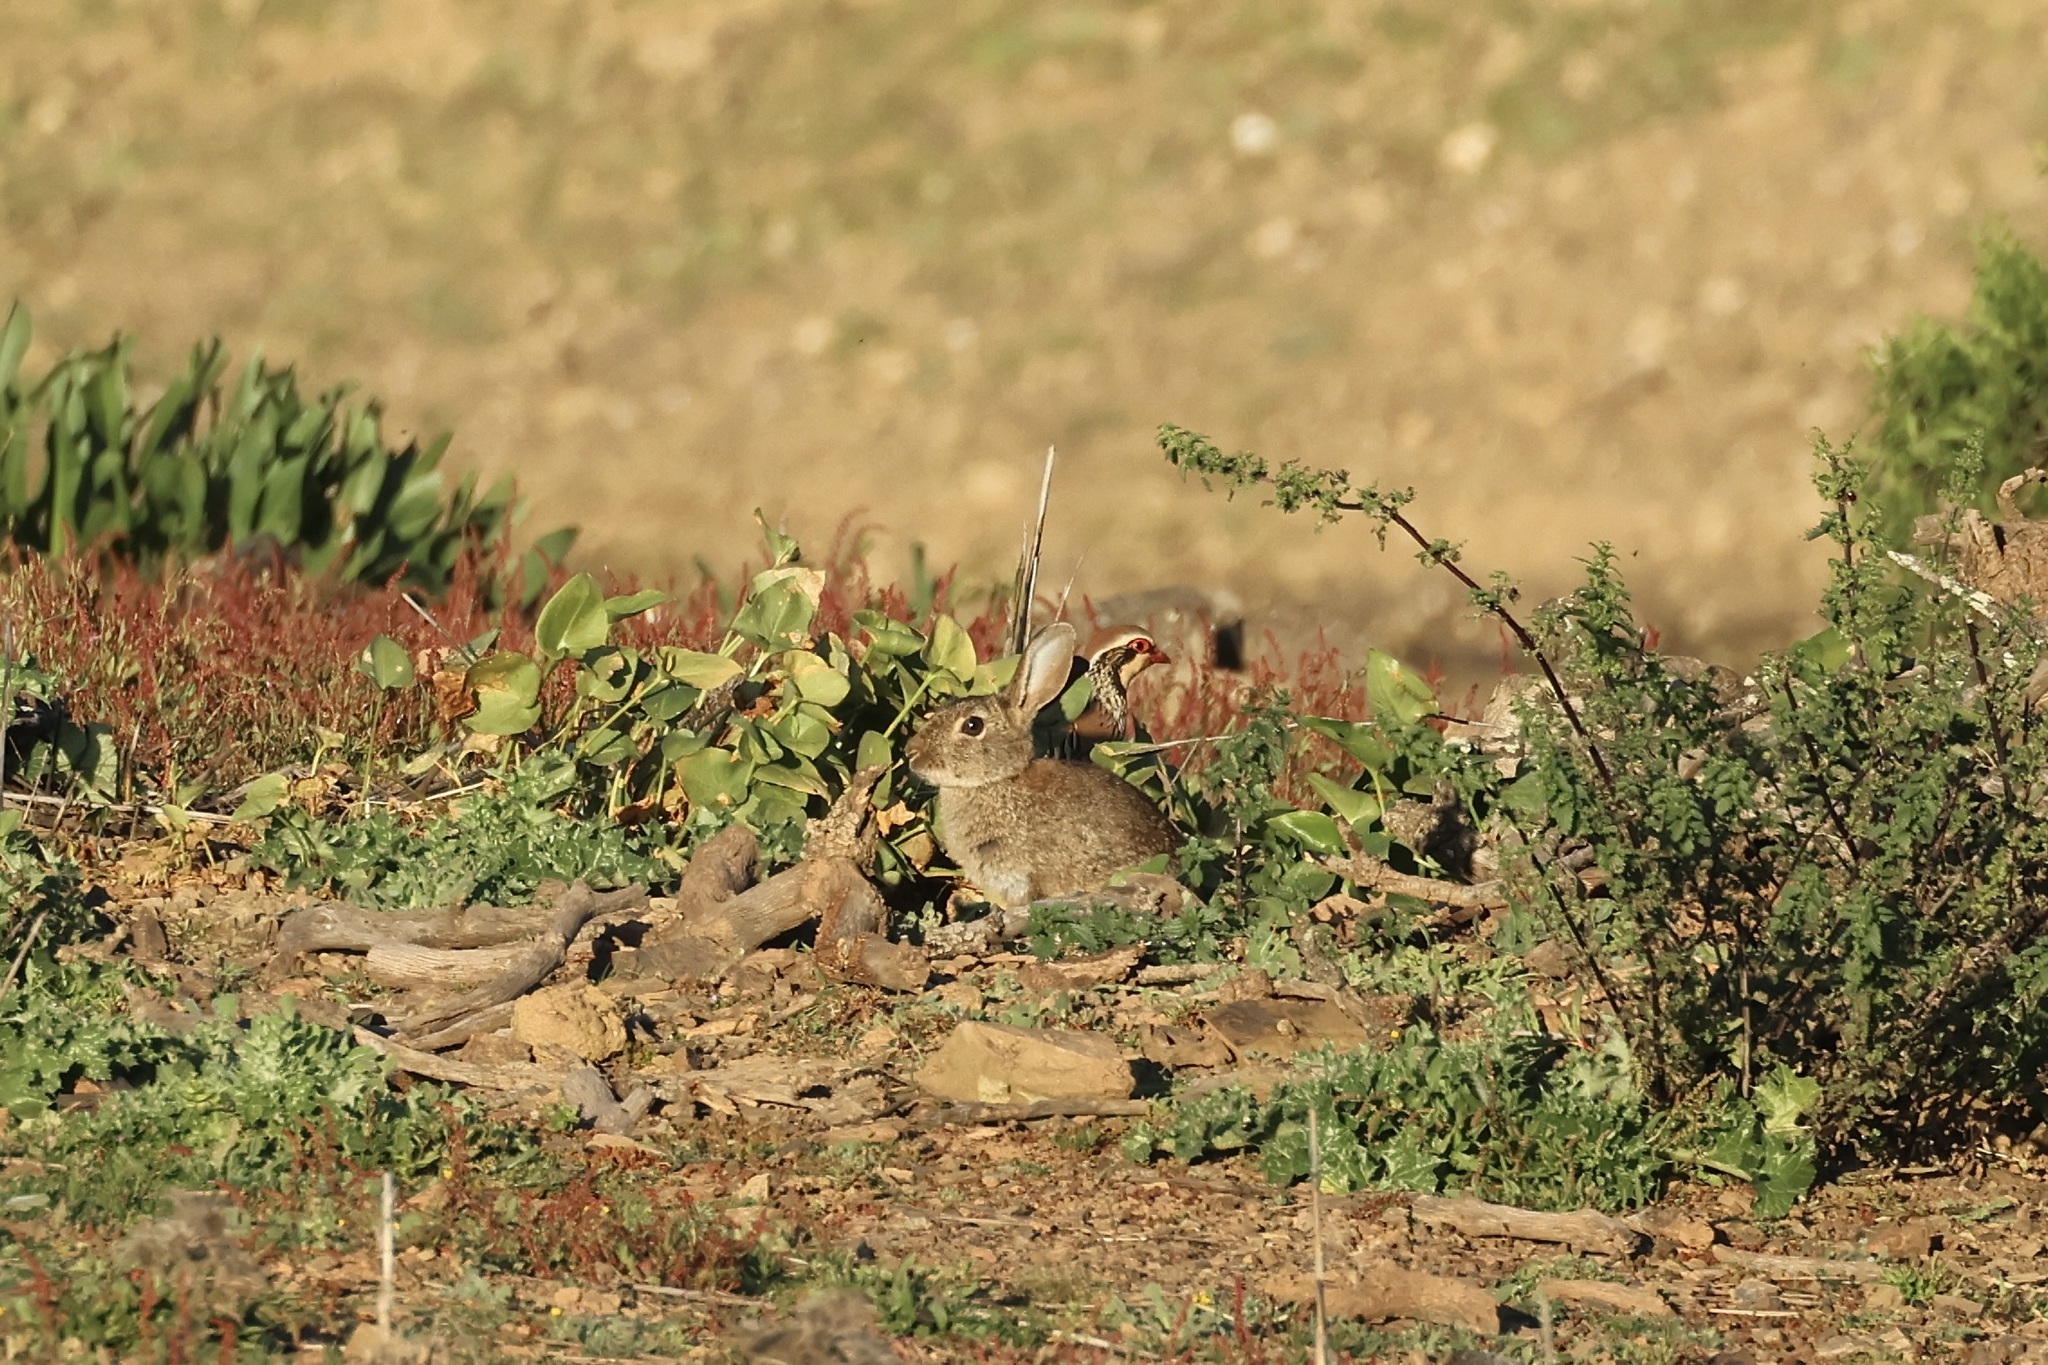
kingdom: Animalia
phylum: Chordata
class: Mammalia
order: Lagomorpha
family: Leporidae
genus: Oryctolagus
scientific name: Oryctolagus cuniculus
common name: European rabbit
